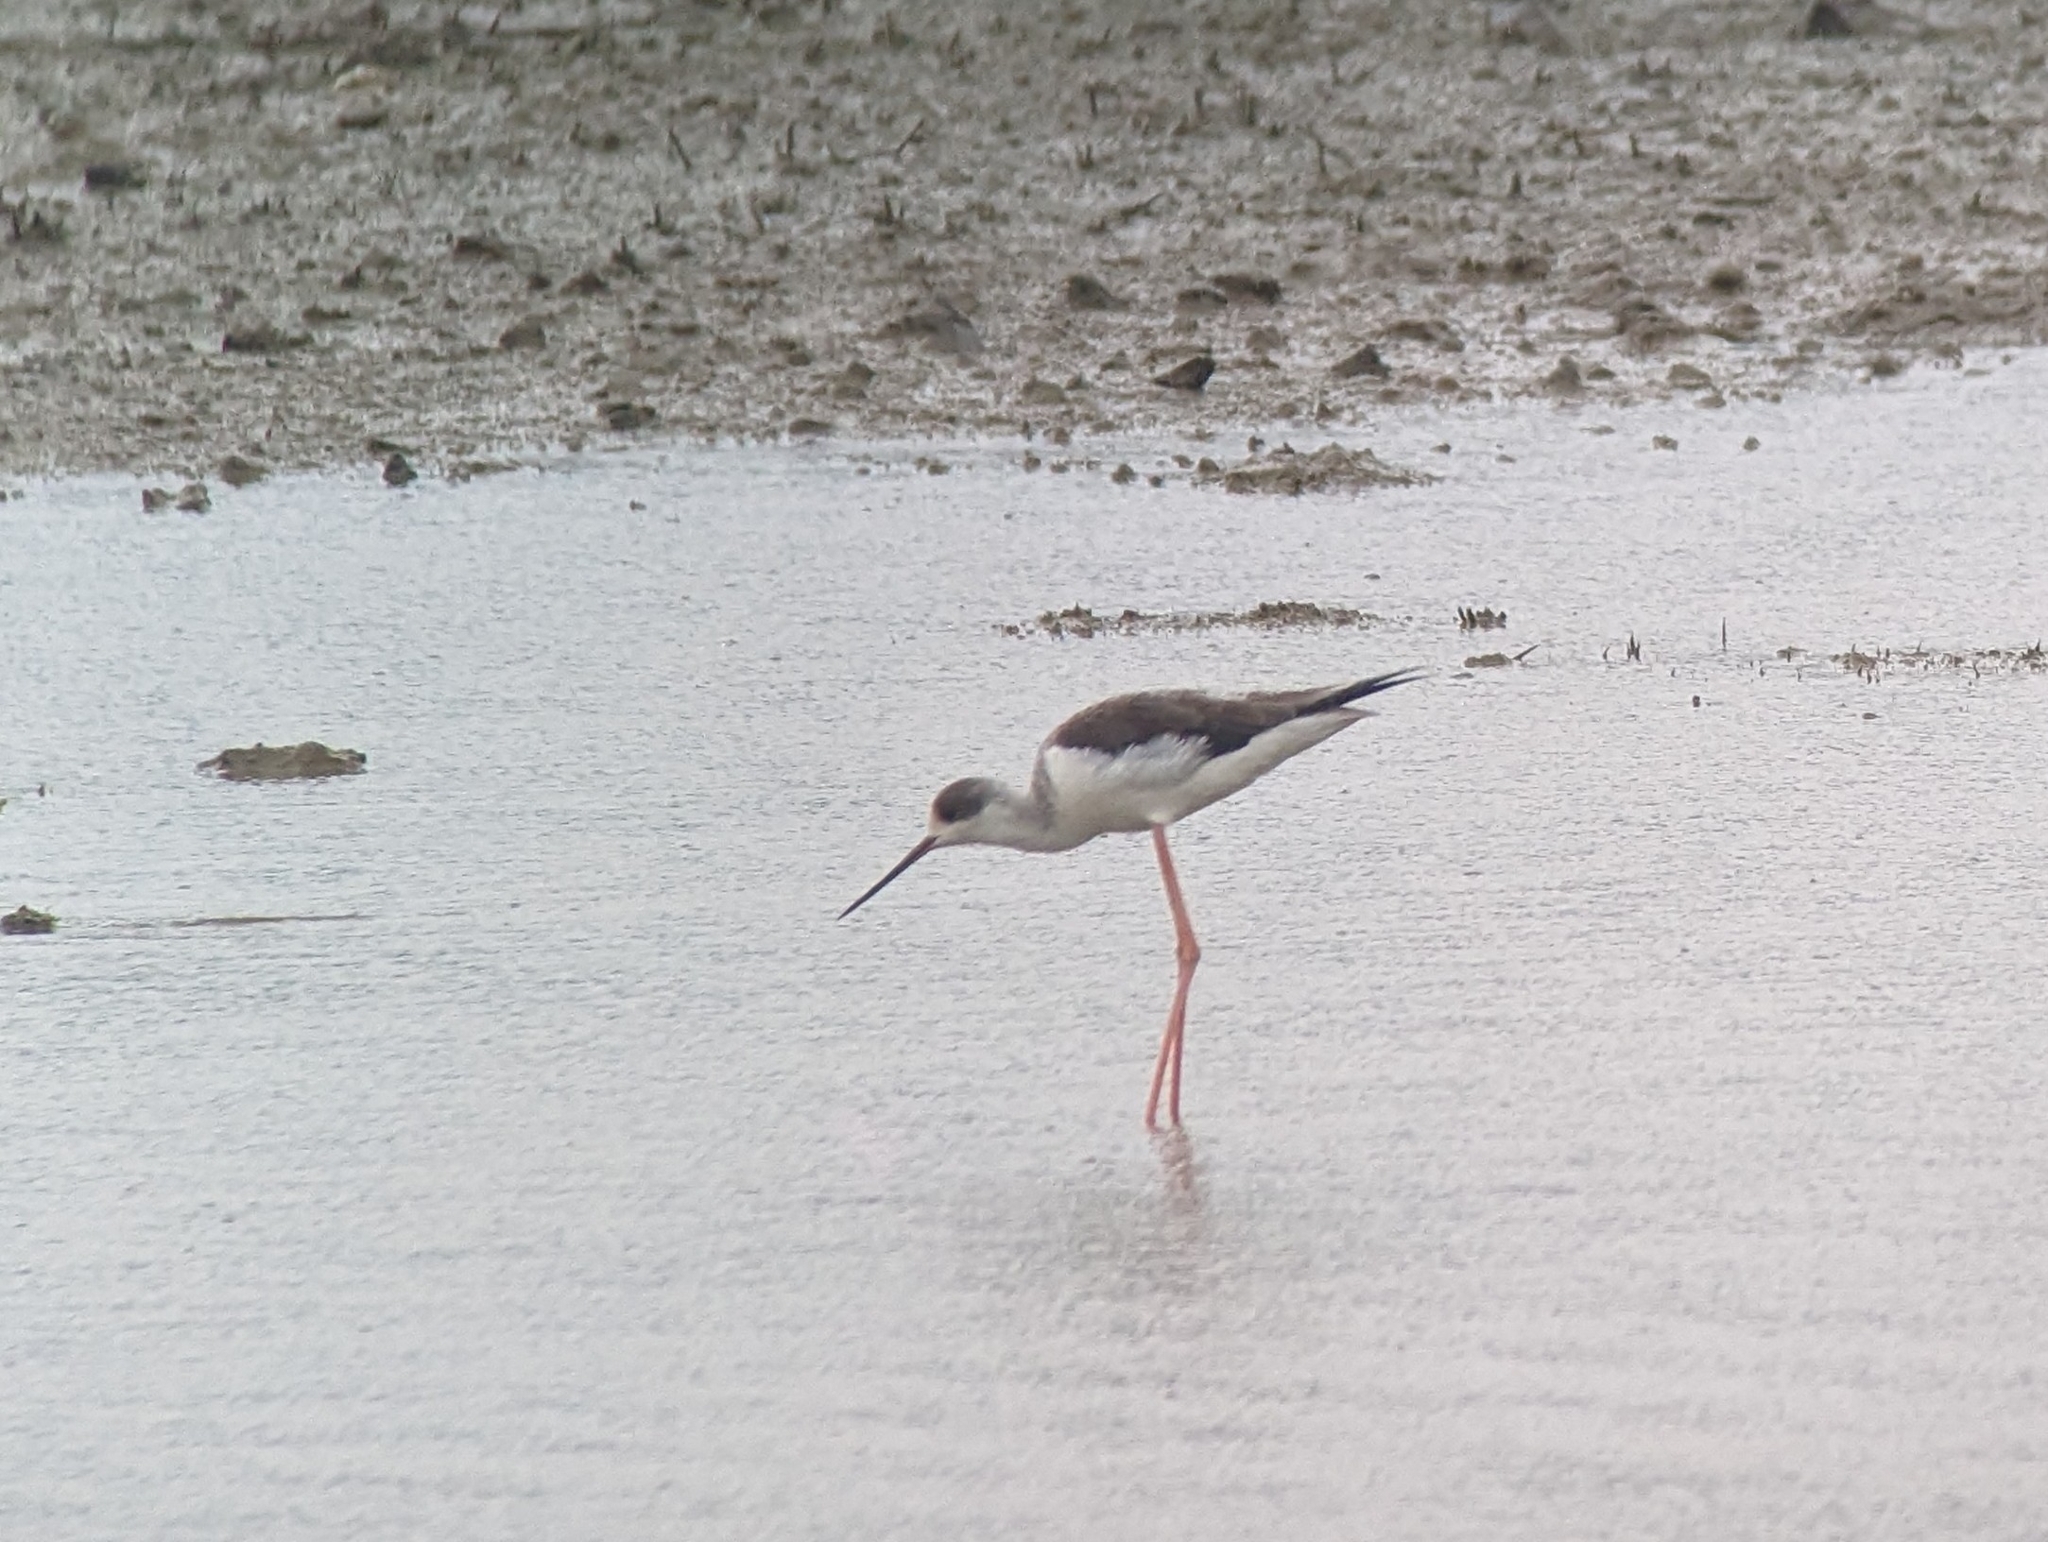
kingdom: Animalia
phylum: Chordata
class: Aves
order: Charadriiformes
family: Recurvirostridae
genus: Himantopus
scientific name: Himantopus himantopus
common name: Black-winged stilt
